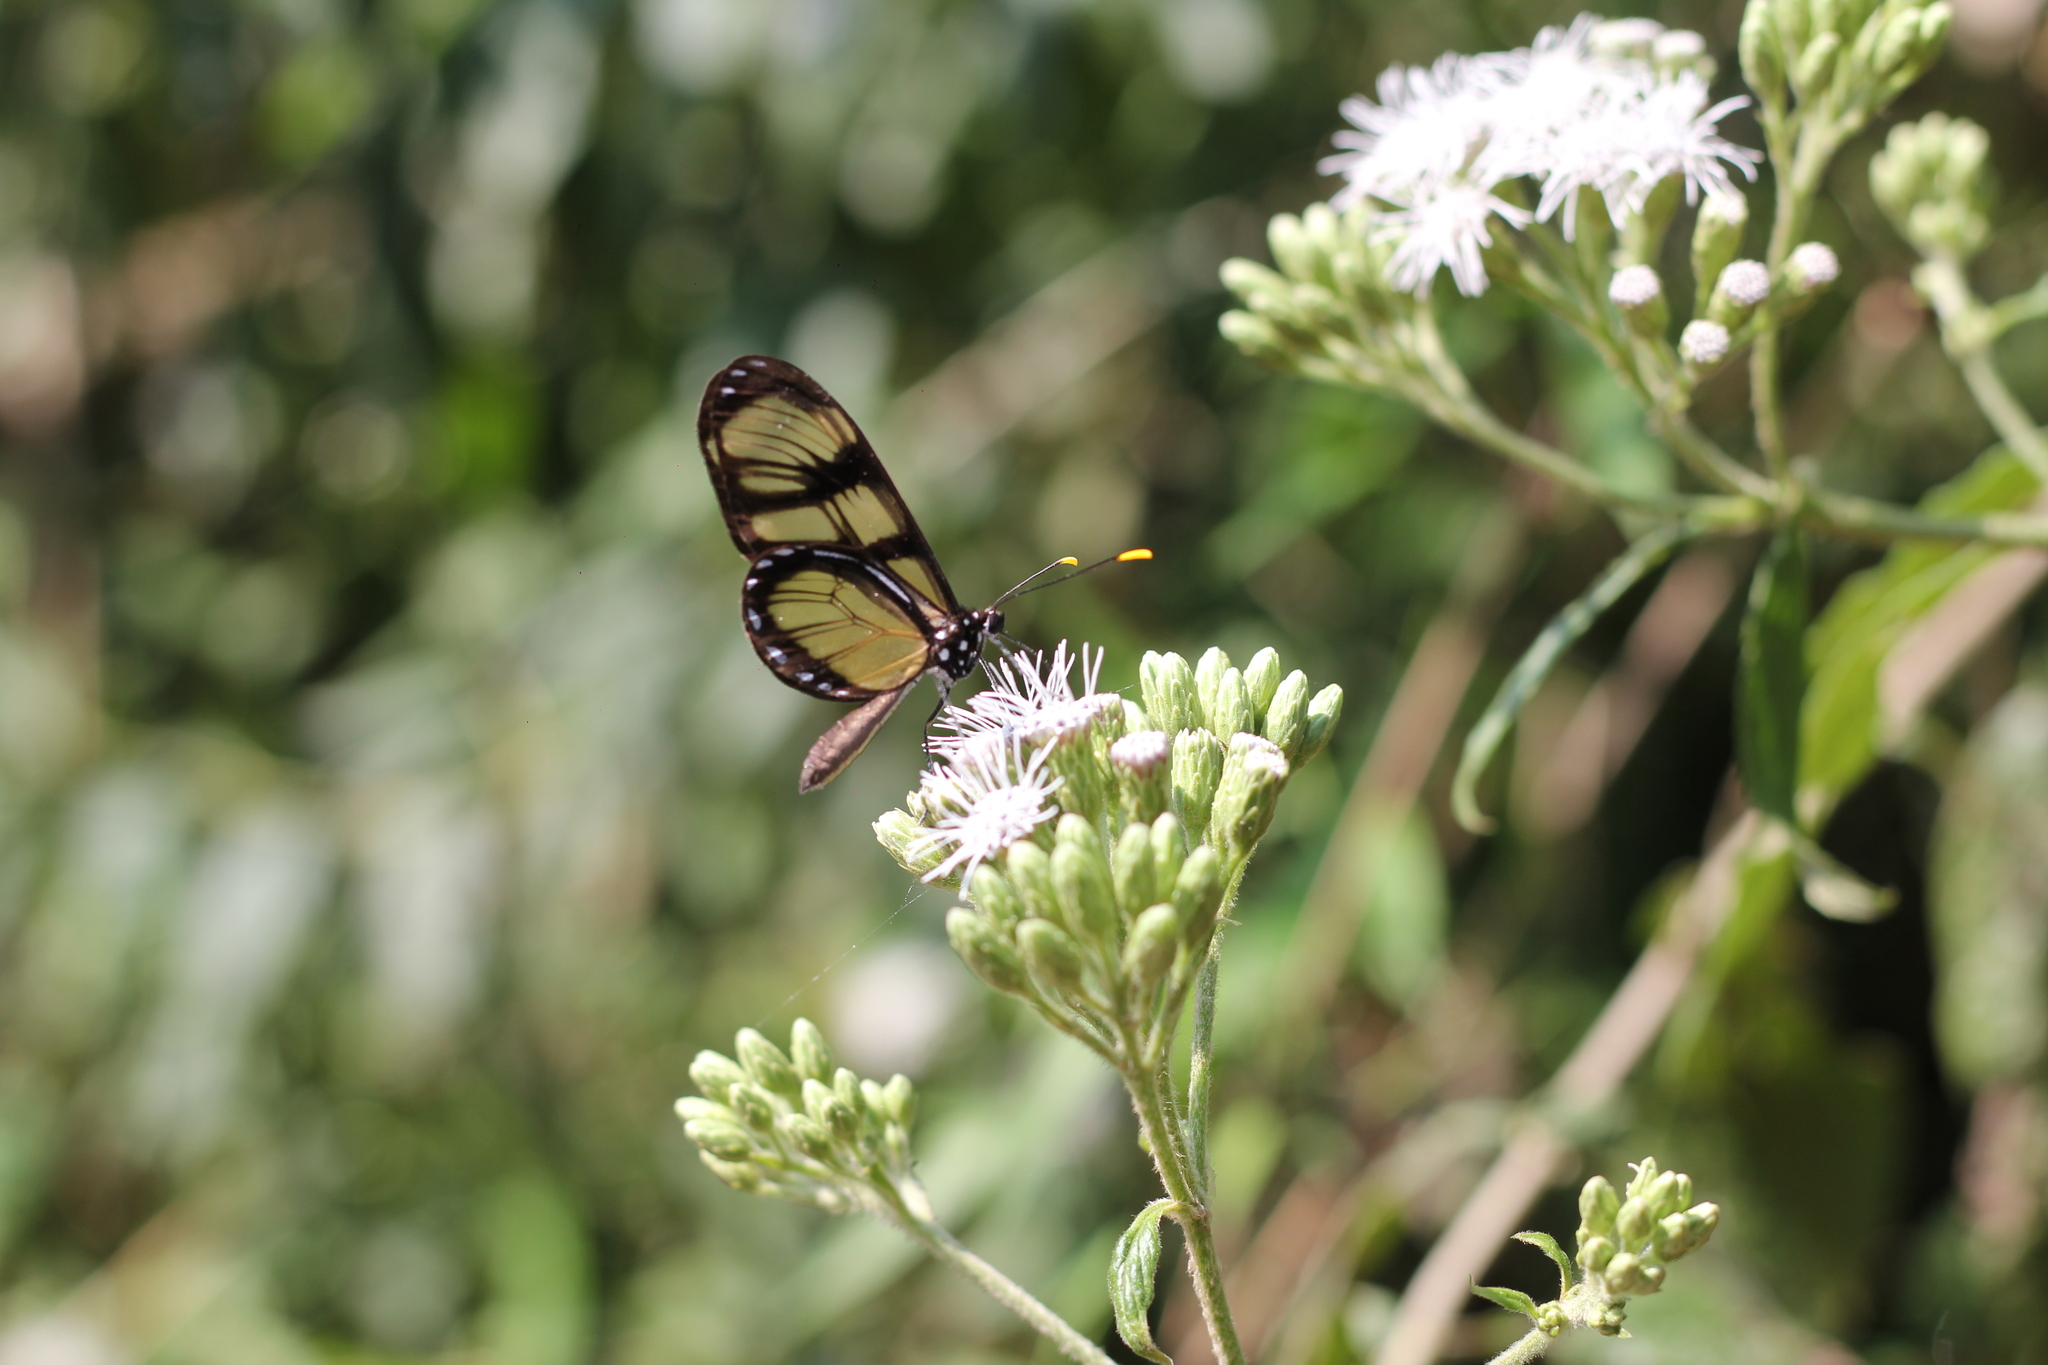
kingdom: Animalia
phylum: Arthropoda
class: Insecta
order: Lepidoptera
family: Nymphalidae
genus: Dircenna
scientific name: Dircenna dero
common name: Dero clearwing
